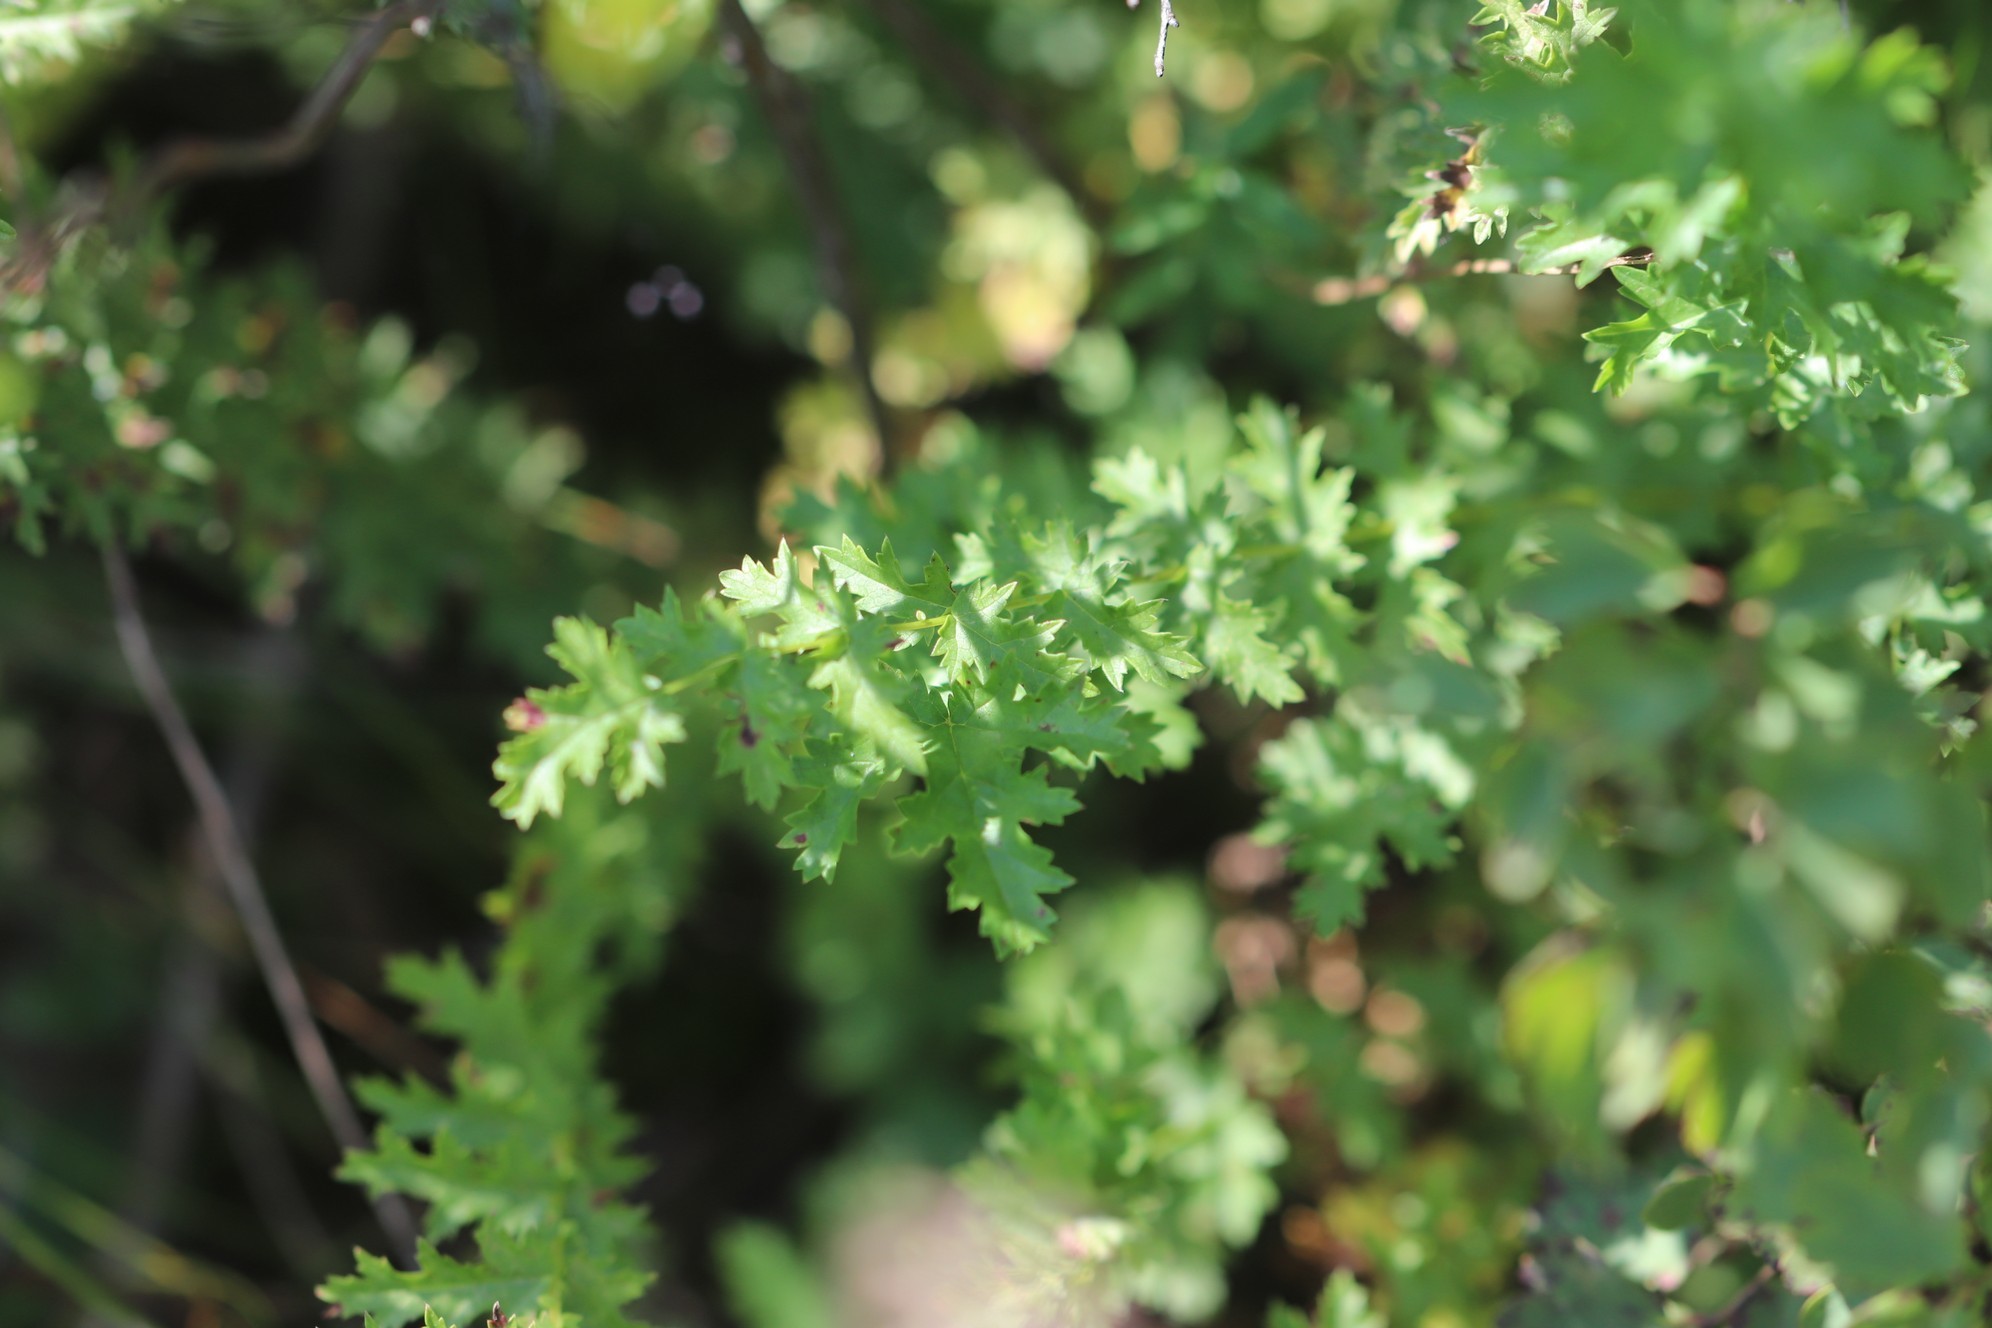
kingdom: Plantae
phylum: Tracheophyta
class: Magnoliopsida
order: Rosales
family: Rosaceae
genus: Filipendula
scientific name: Filipendula vulgaris
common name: Dropwort
